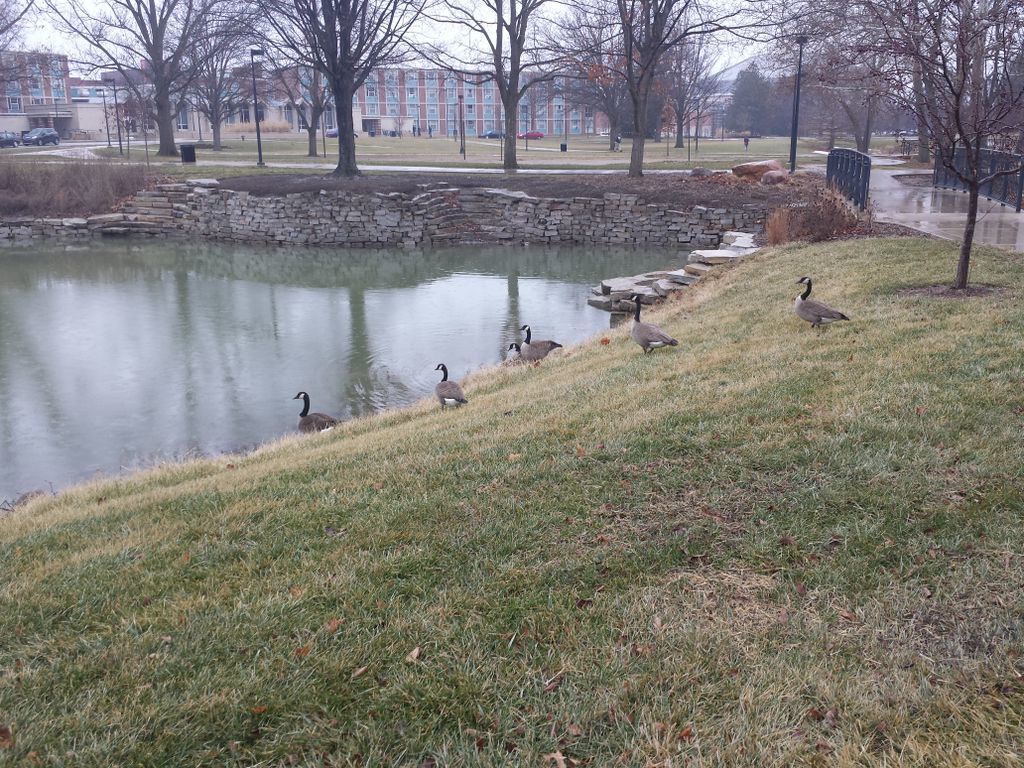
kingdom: Animalia
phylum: Chordata
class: Aves
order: Anseriformes
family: Anatidae
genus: Branta
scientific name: Branta canadensis
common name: Canada goose
